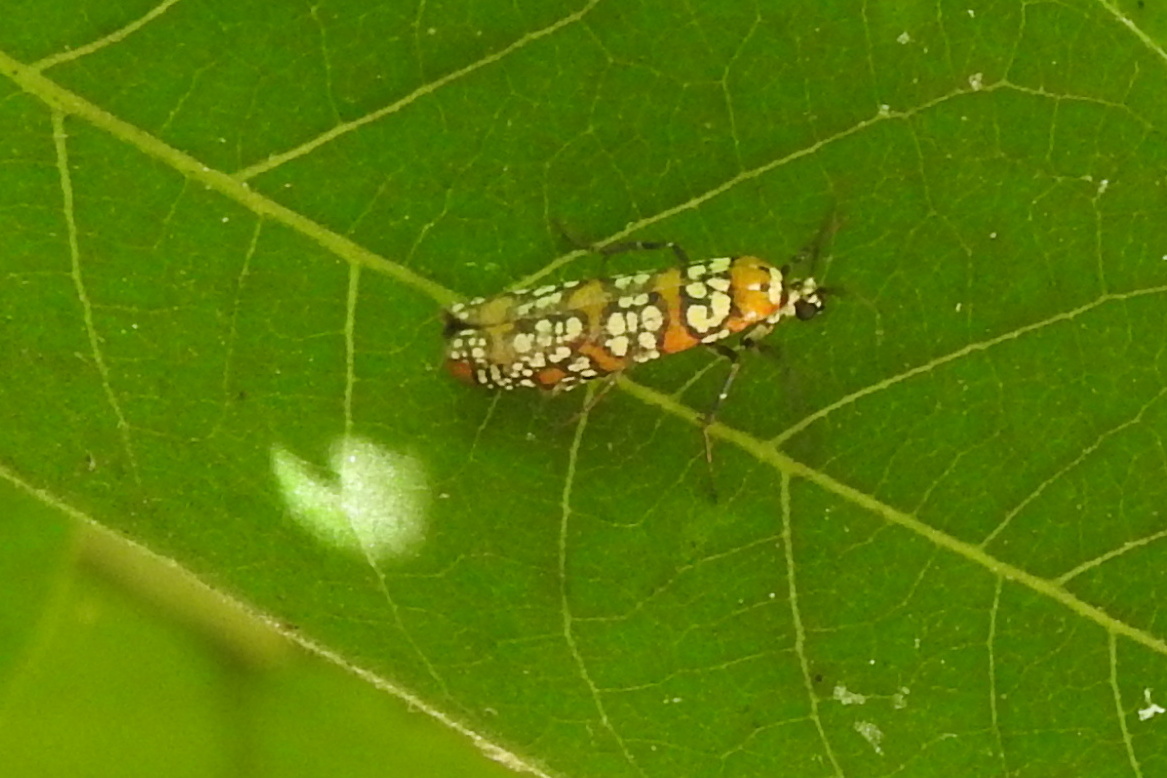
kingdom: Animalia
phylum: Arthropoda
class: Insecta
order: Lepidoptera
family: Attevidae
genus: Atteva
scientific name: Atteva punctella
